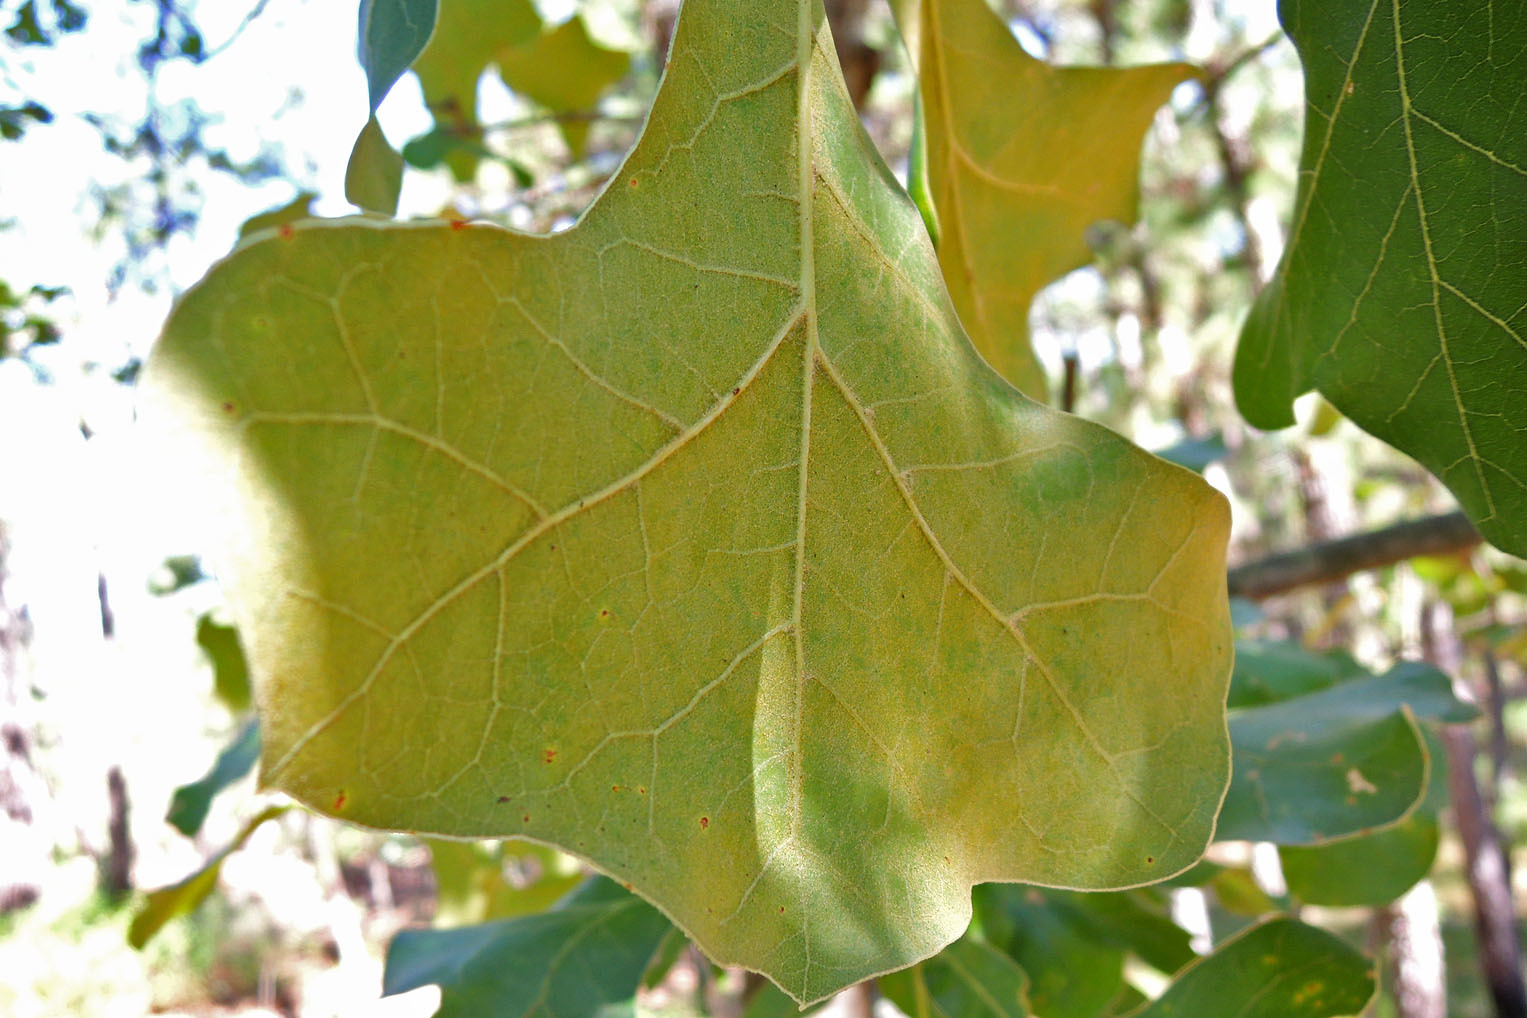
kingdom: Plantae
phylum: Tracheophyta
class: Magnoliopsida
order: Fagales
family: Fagaceae
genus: Quercus
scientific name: Quercus marilandica
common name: Blackjack oak
